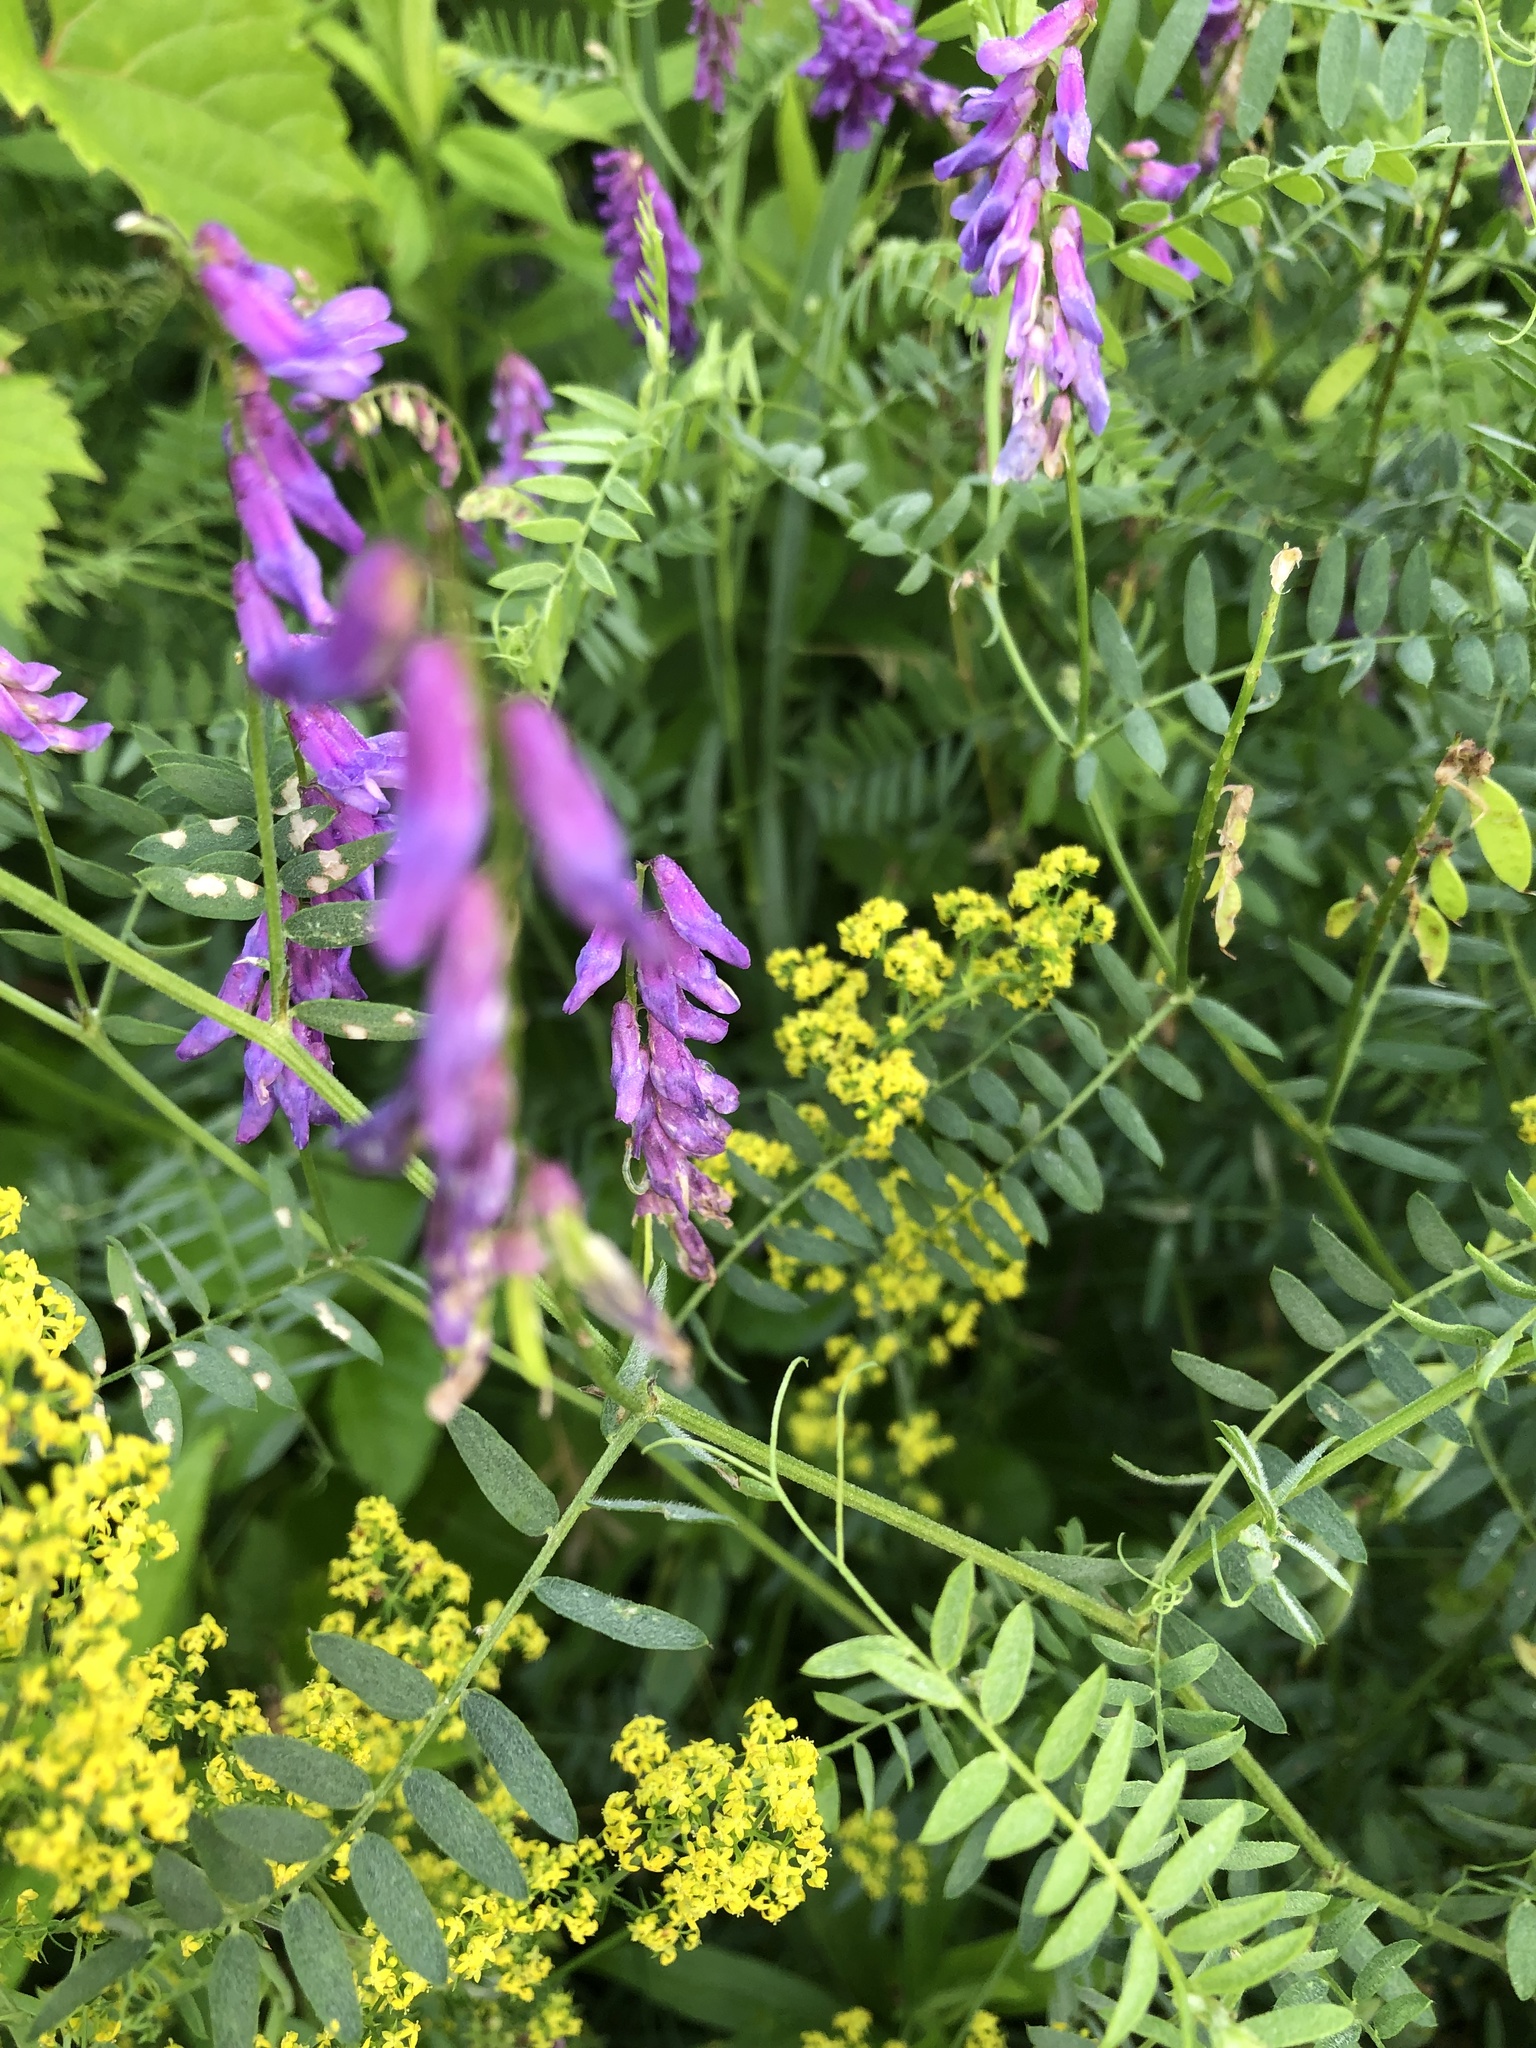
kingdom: Plantae
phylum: Tracheophyta
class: Magnoliopsida
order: Fabales
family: Fabaceae
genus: Vicia
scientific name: Vicia cracca
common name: Bird vetch
